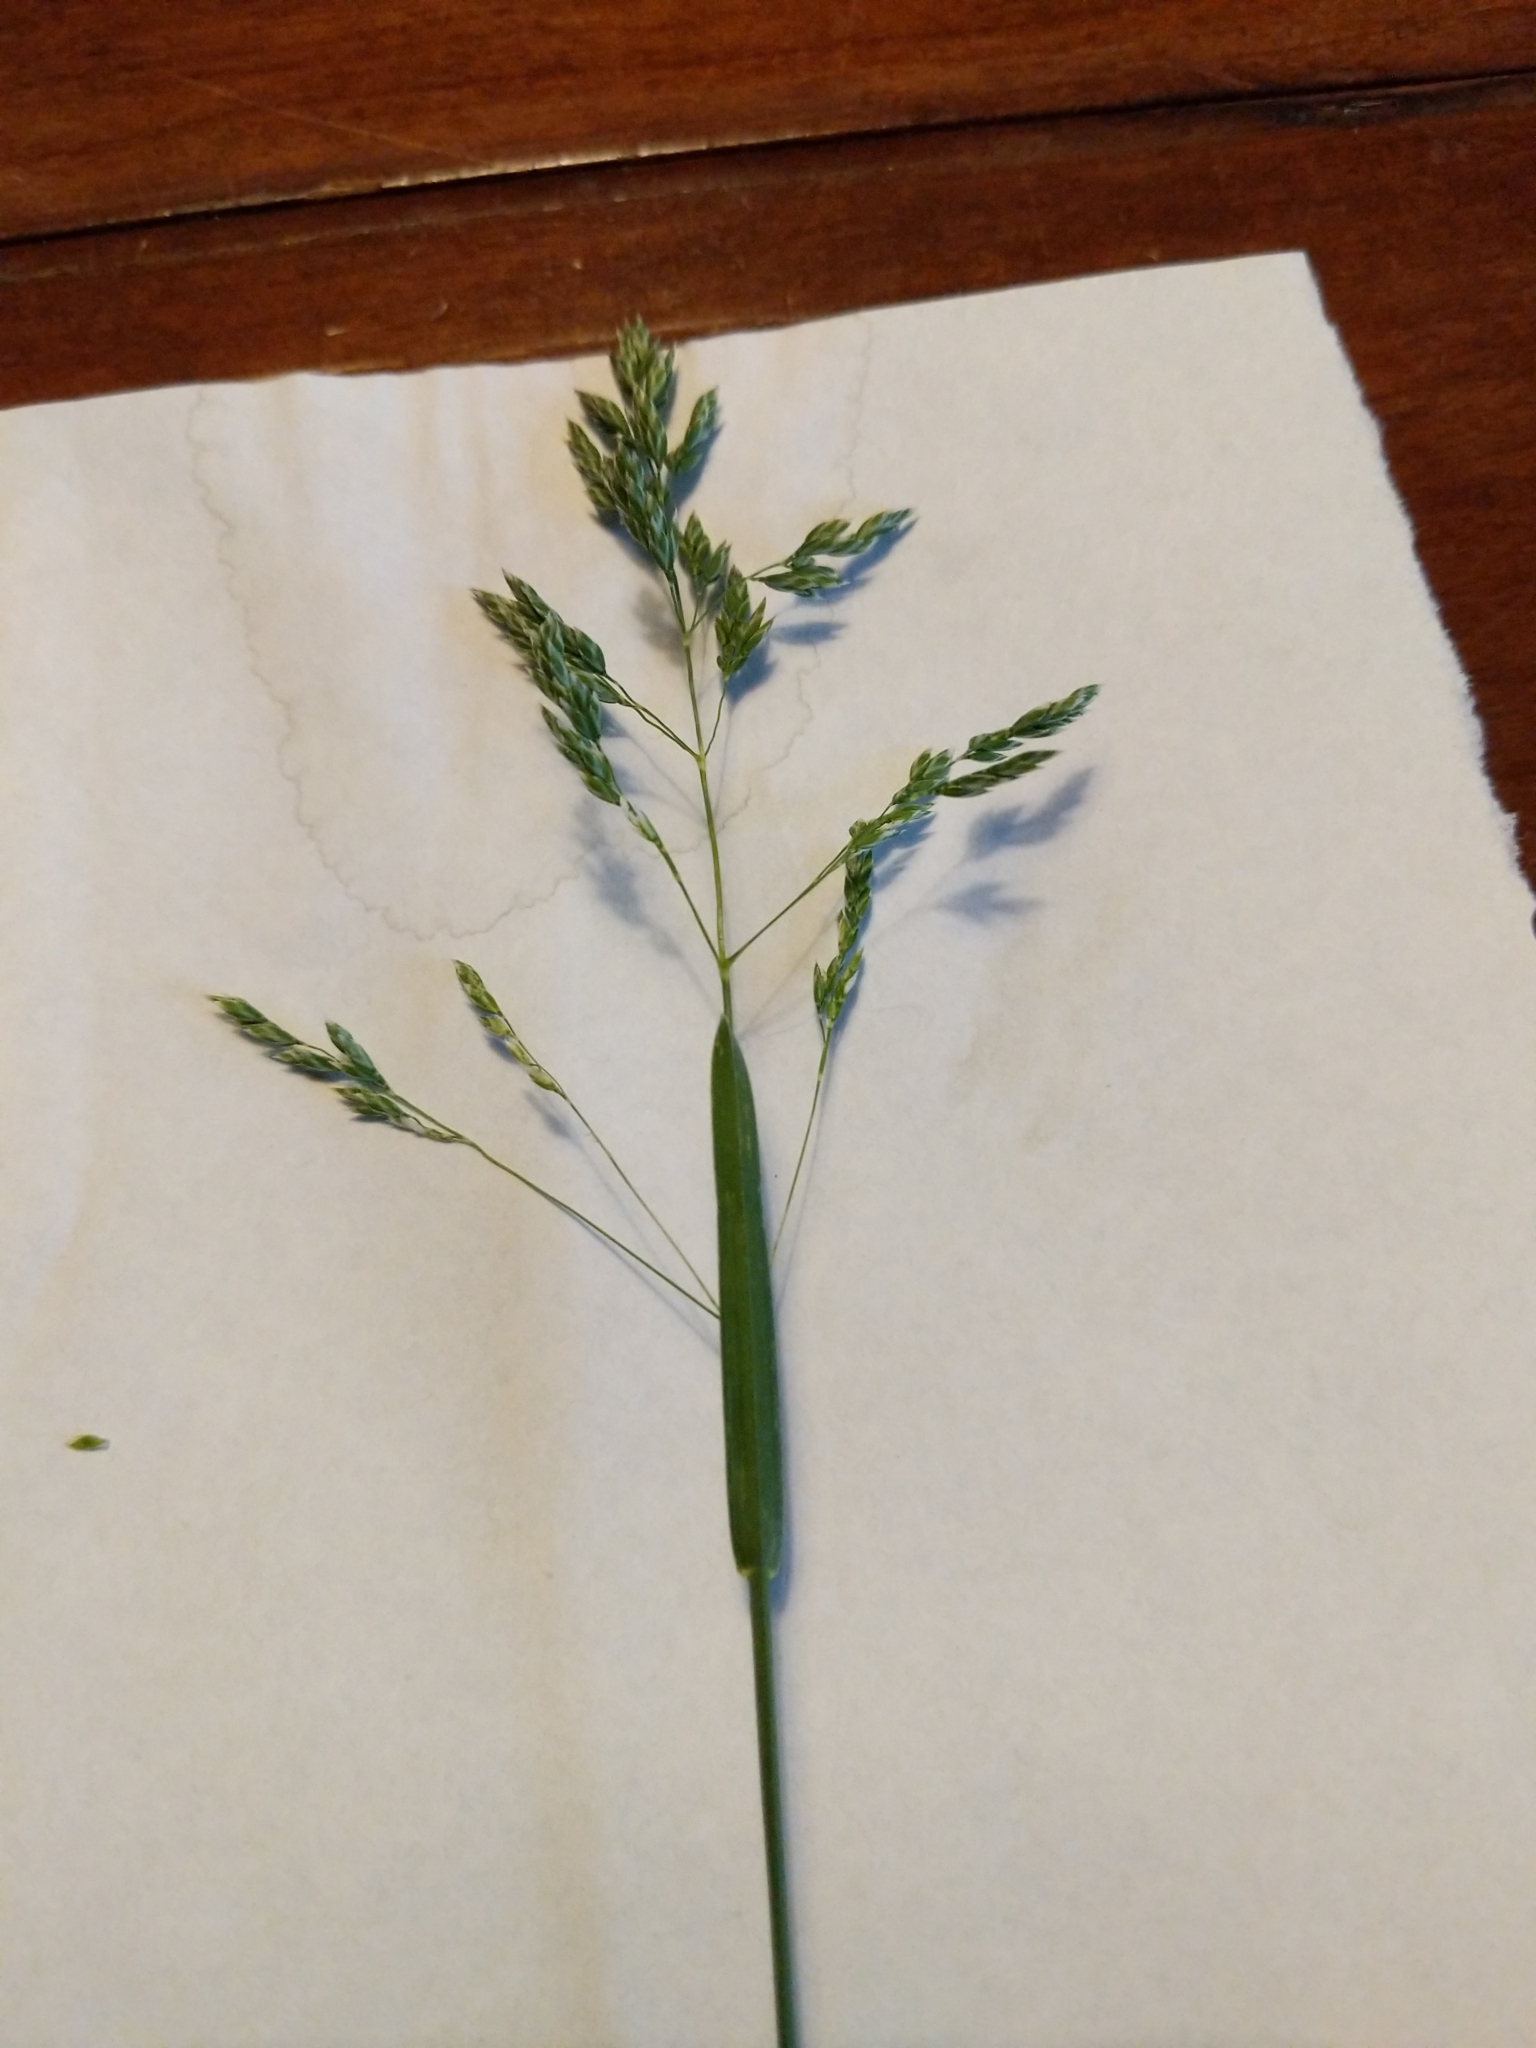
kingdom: Plantae
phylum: Tracheophyta
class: Liliopsida
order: Poales
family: Poaceae
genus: Poa
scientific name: Poa pratensis
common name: Kentucky bluegrass
